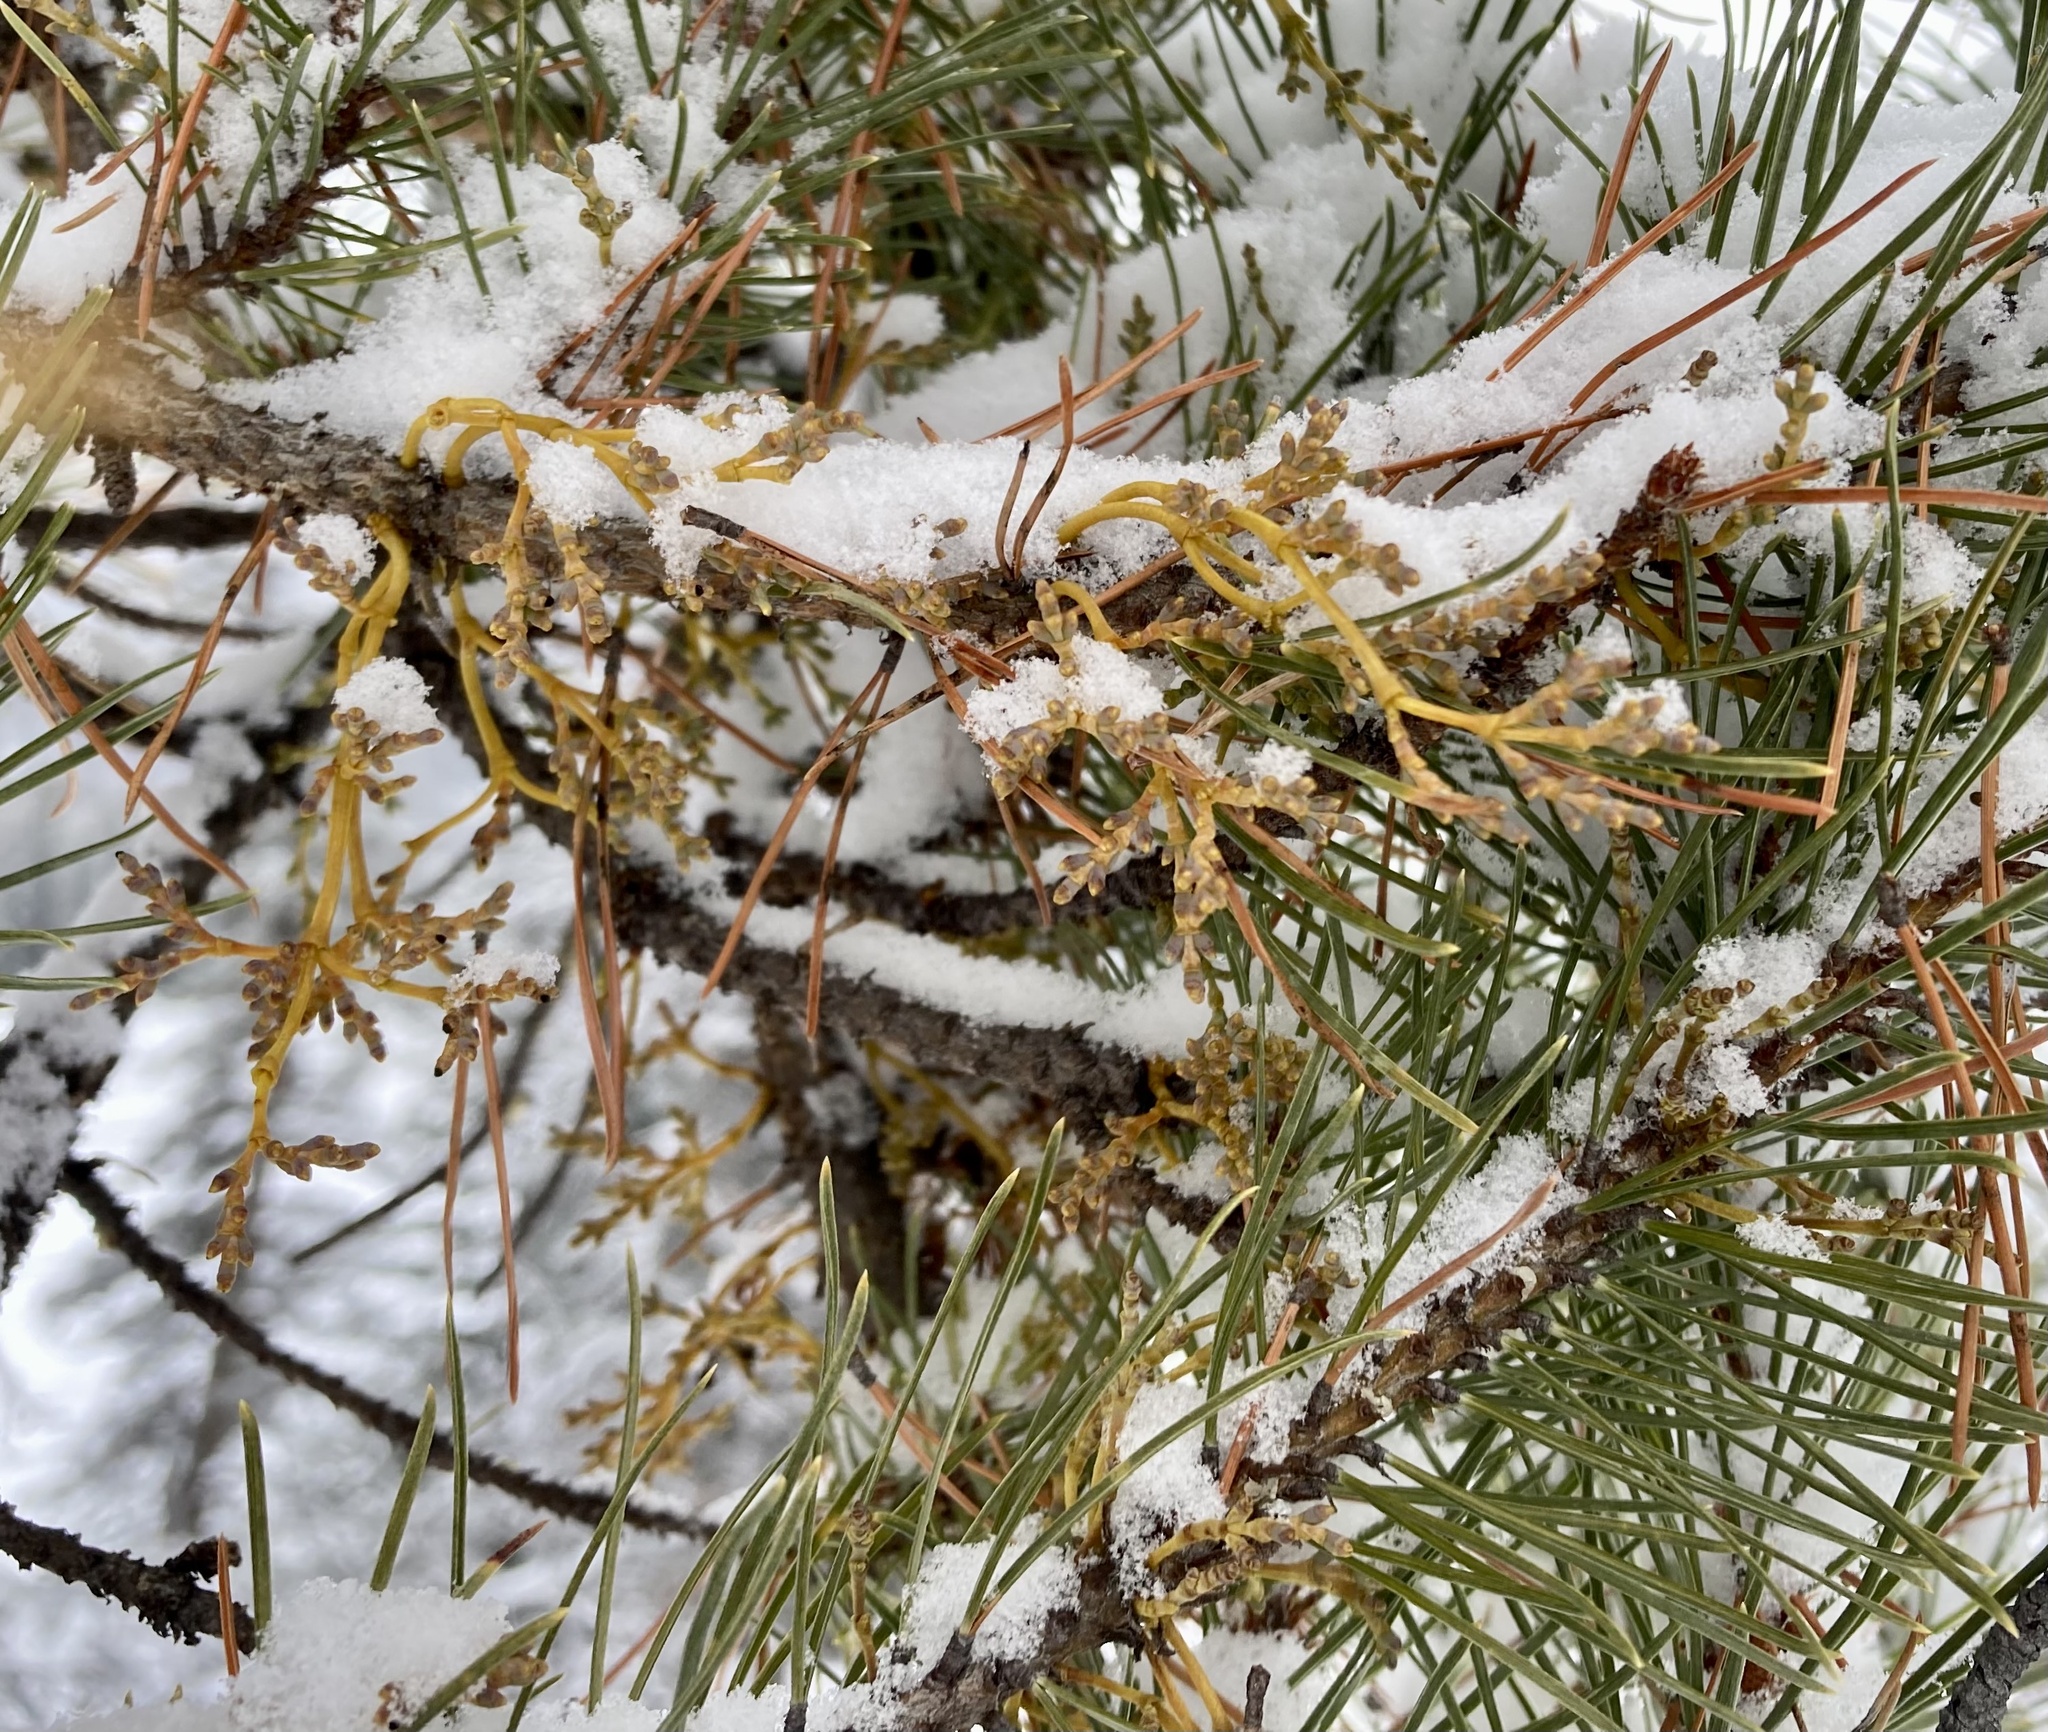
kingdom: Plantae
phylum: Tracheophyta
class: Magnoliopsida
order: Santalales
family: Viscaceae
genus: Arceuthobium
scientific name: Arceuthobium americanum
